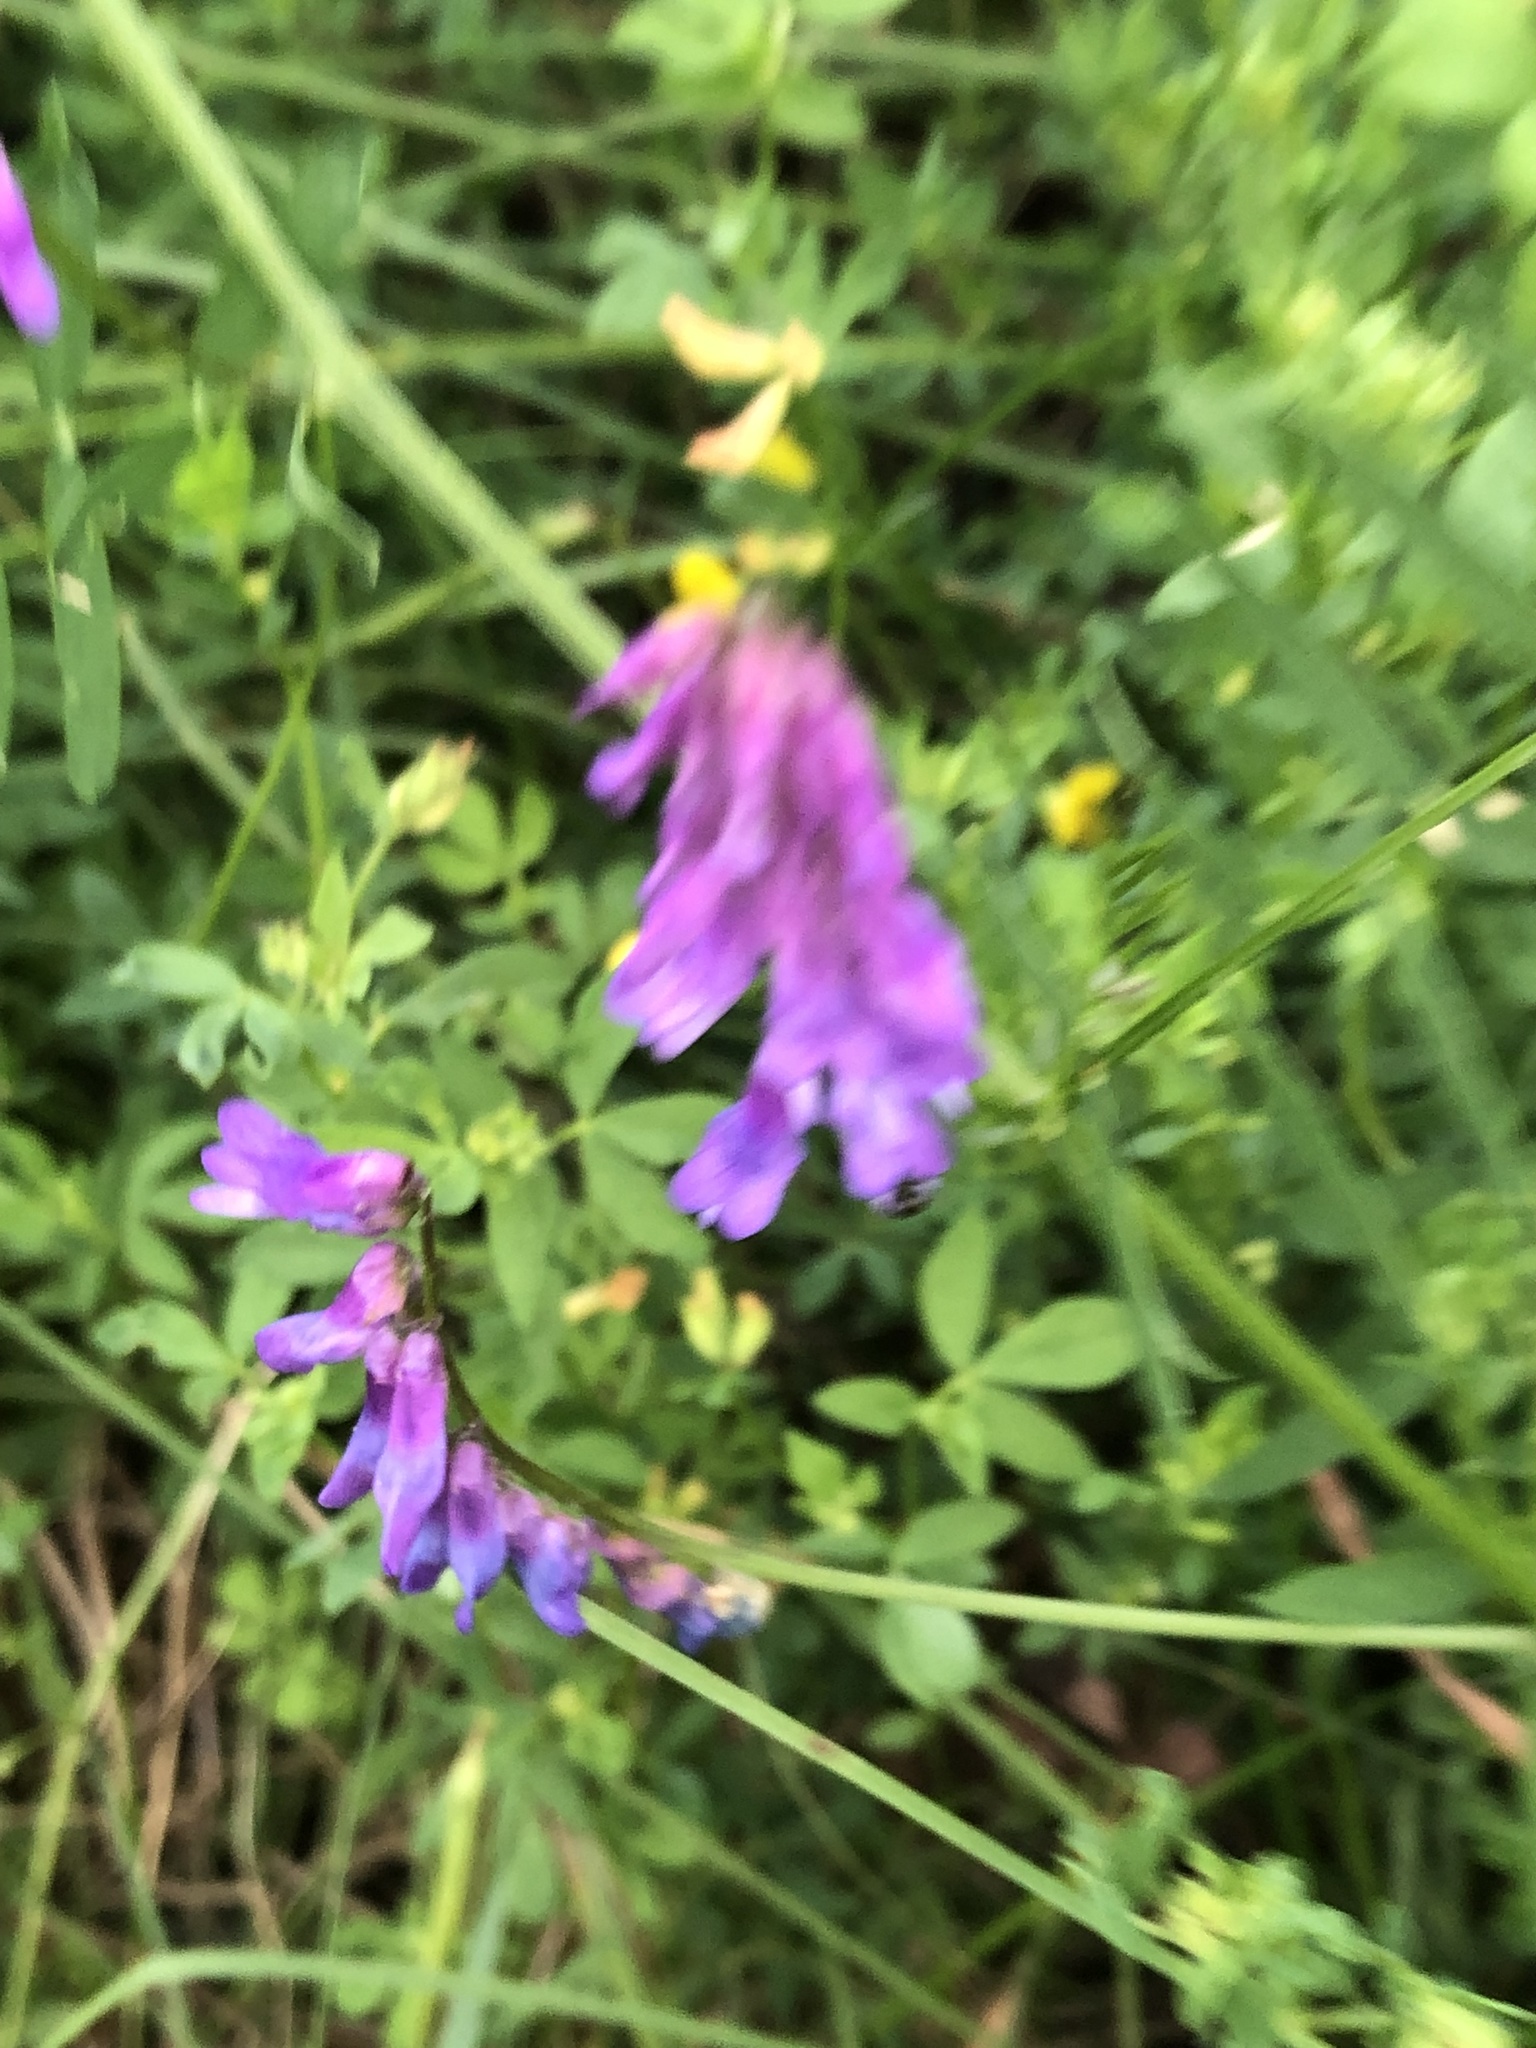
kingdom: Plantae
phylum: Tracheophyta
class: Magnoliopsida
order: Fabales
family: Fabaceae
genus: Vicia
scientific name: Vicia cracca
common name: Bird vetch
